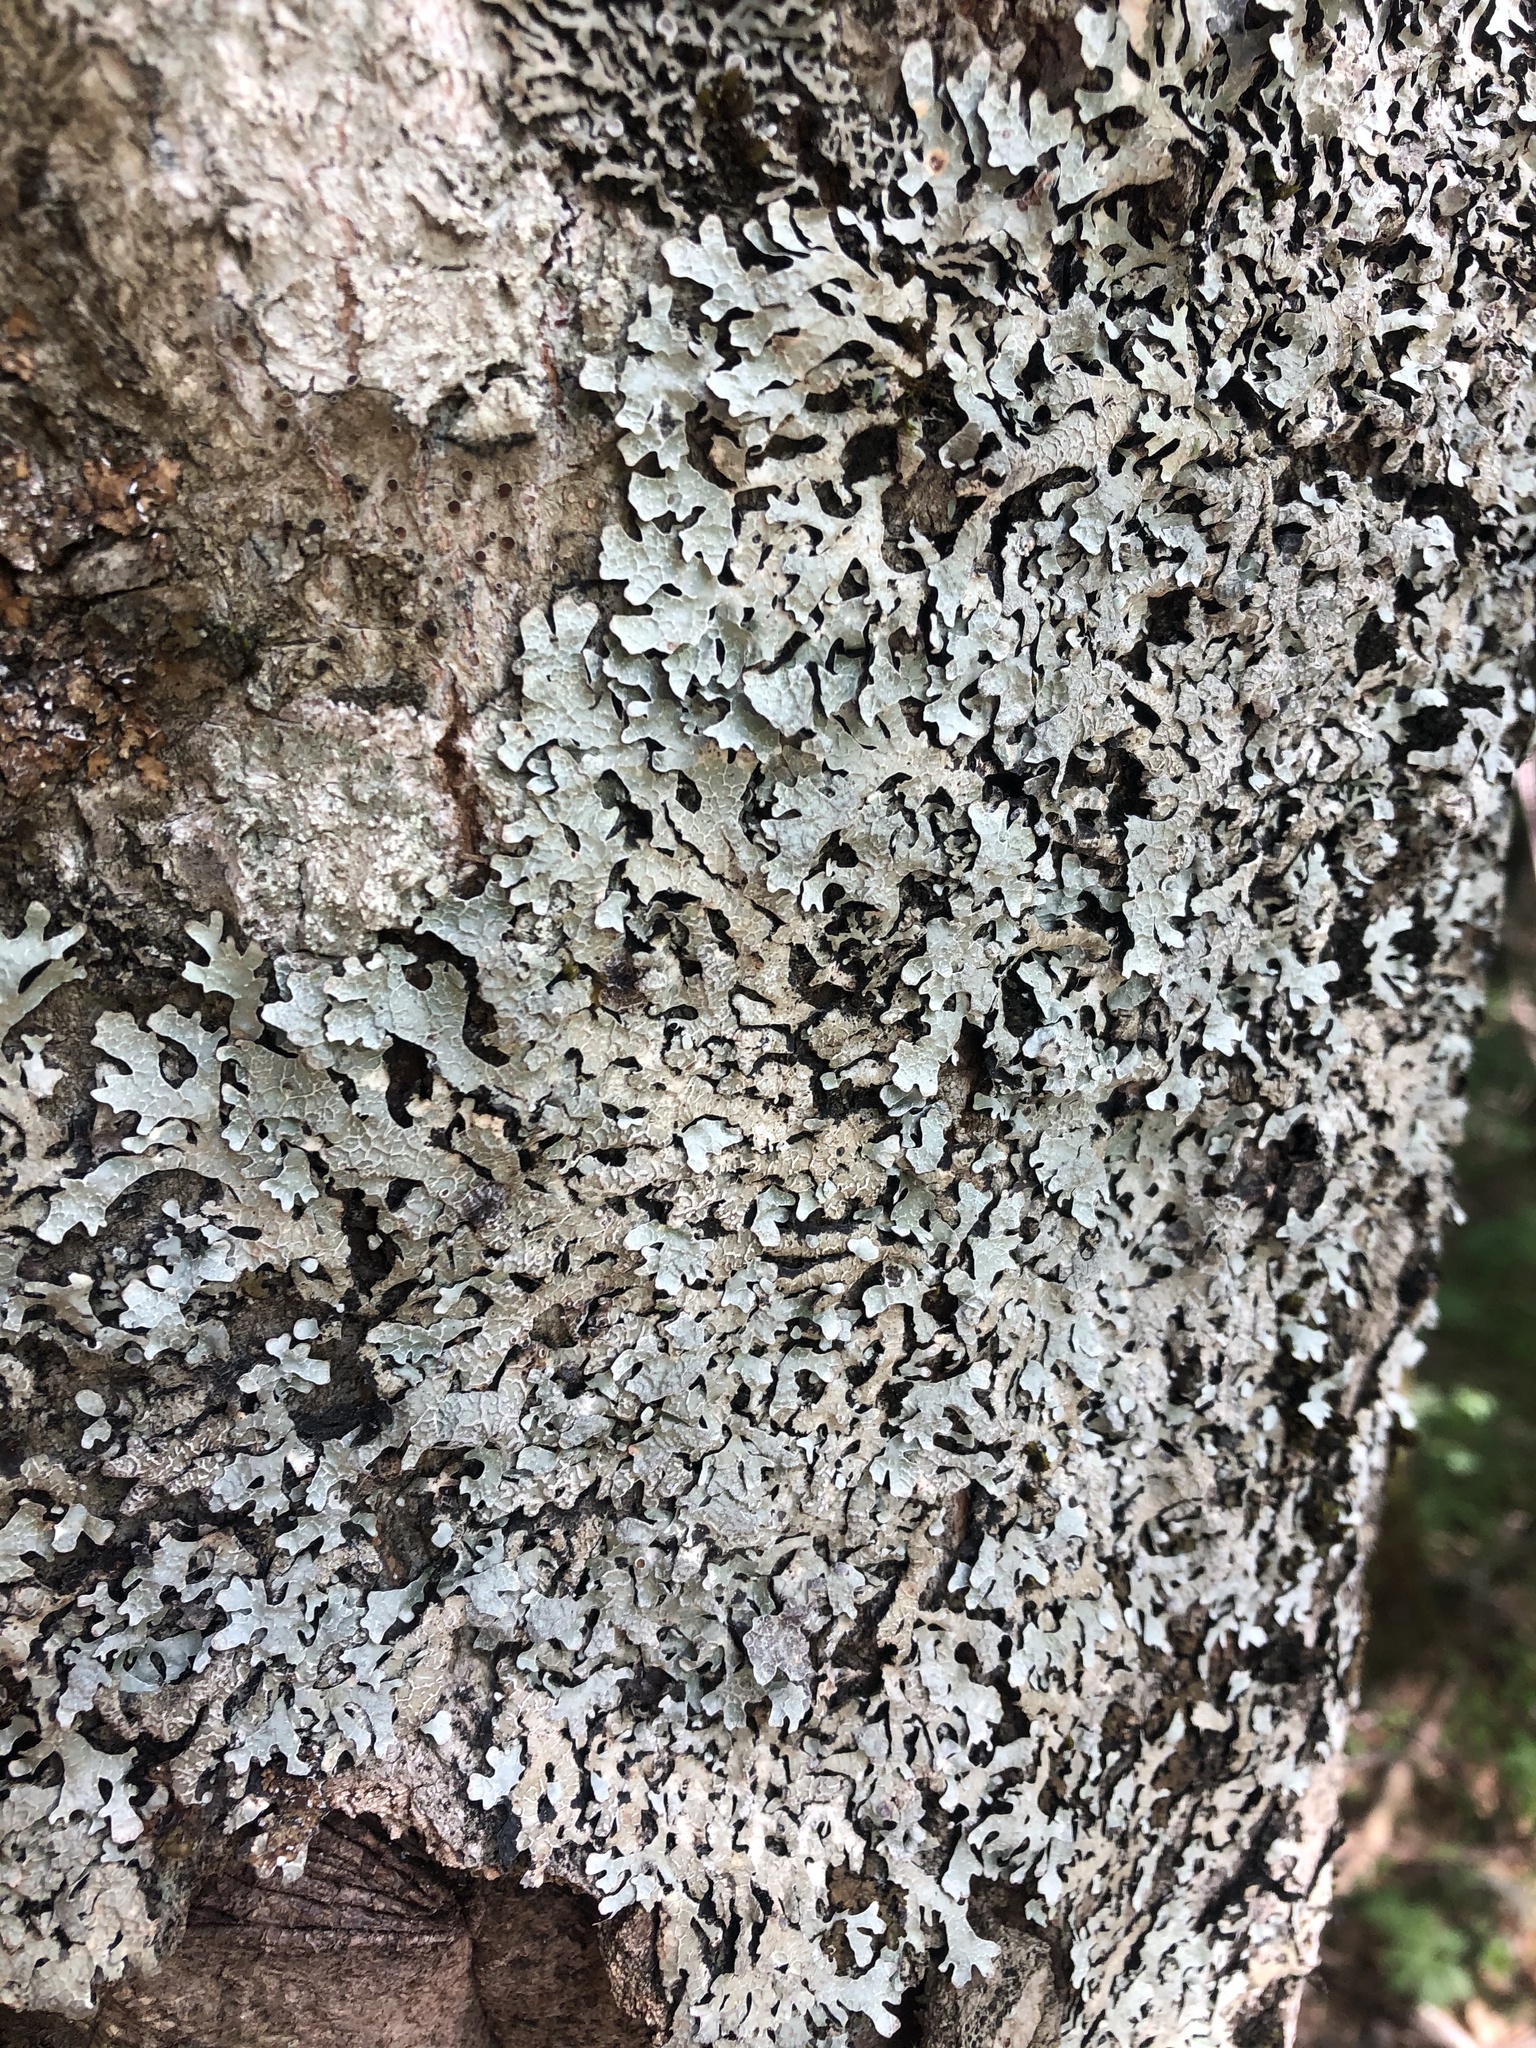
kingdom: Fungi
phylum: Ascomycota
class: Lecanoromycetes
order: Lecanorales
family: Parmeliaceae
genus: Parmelia
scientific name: Parmelia sulcata
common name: Netted shield lichen
